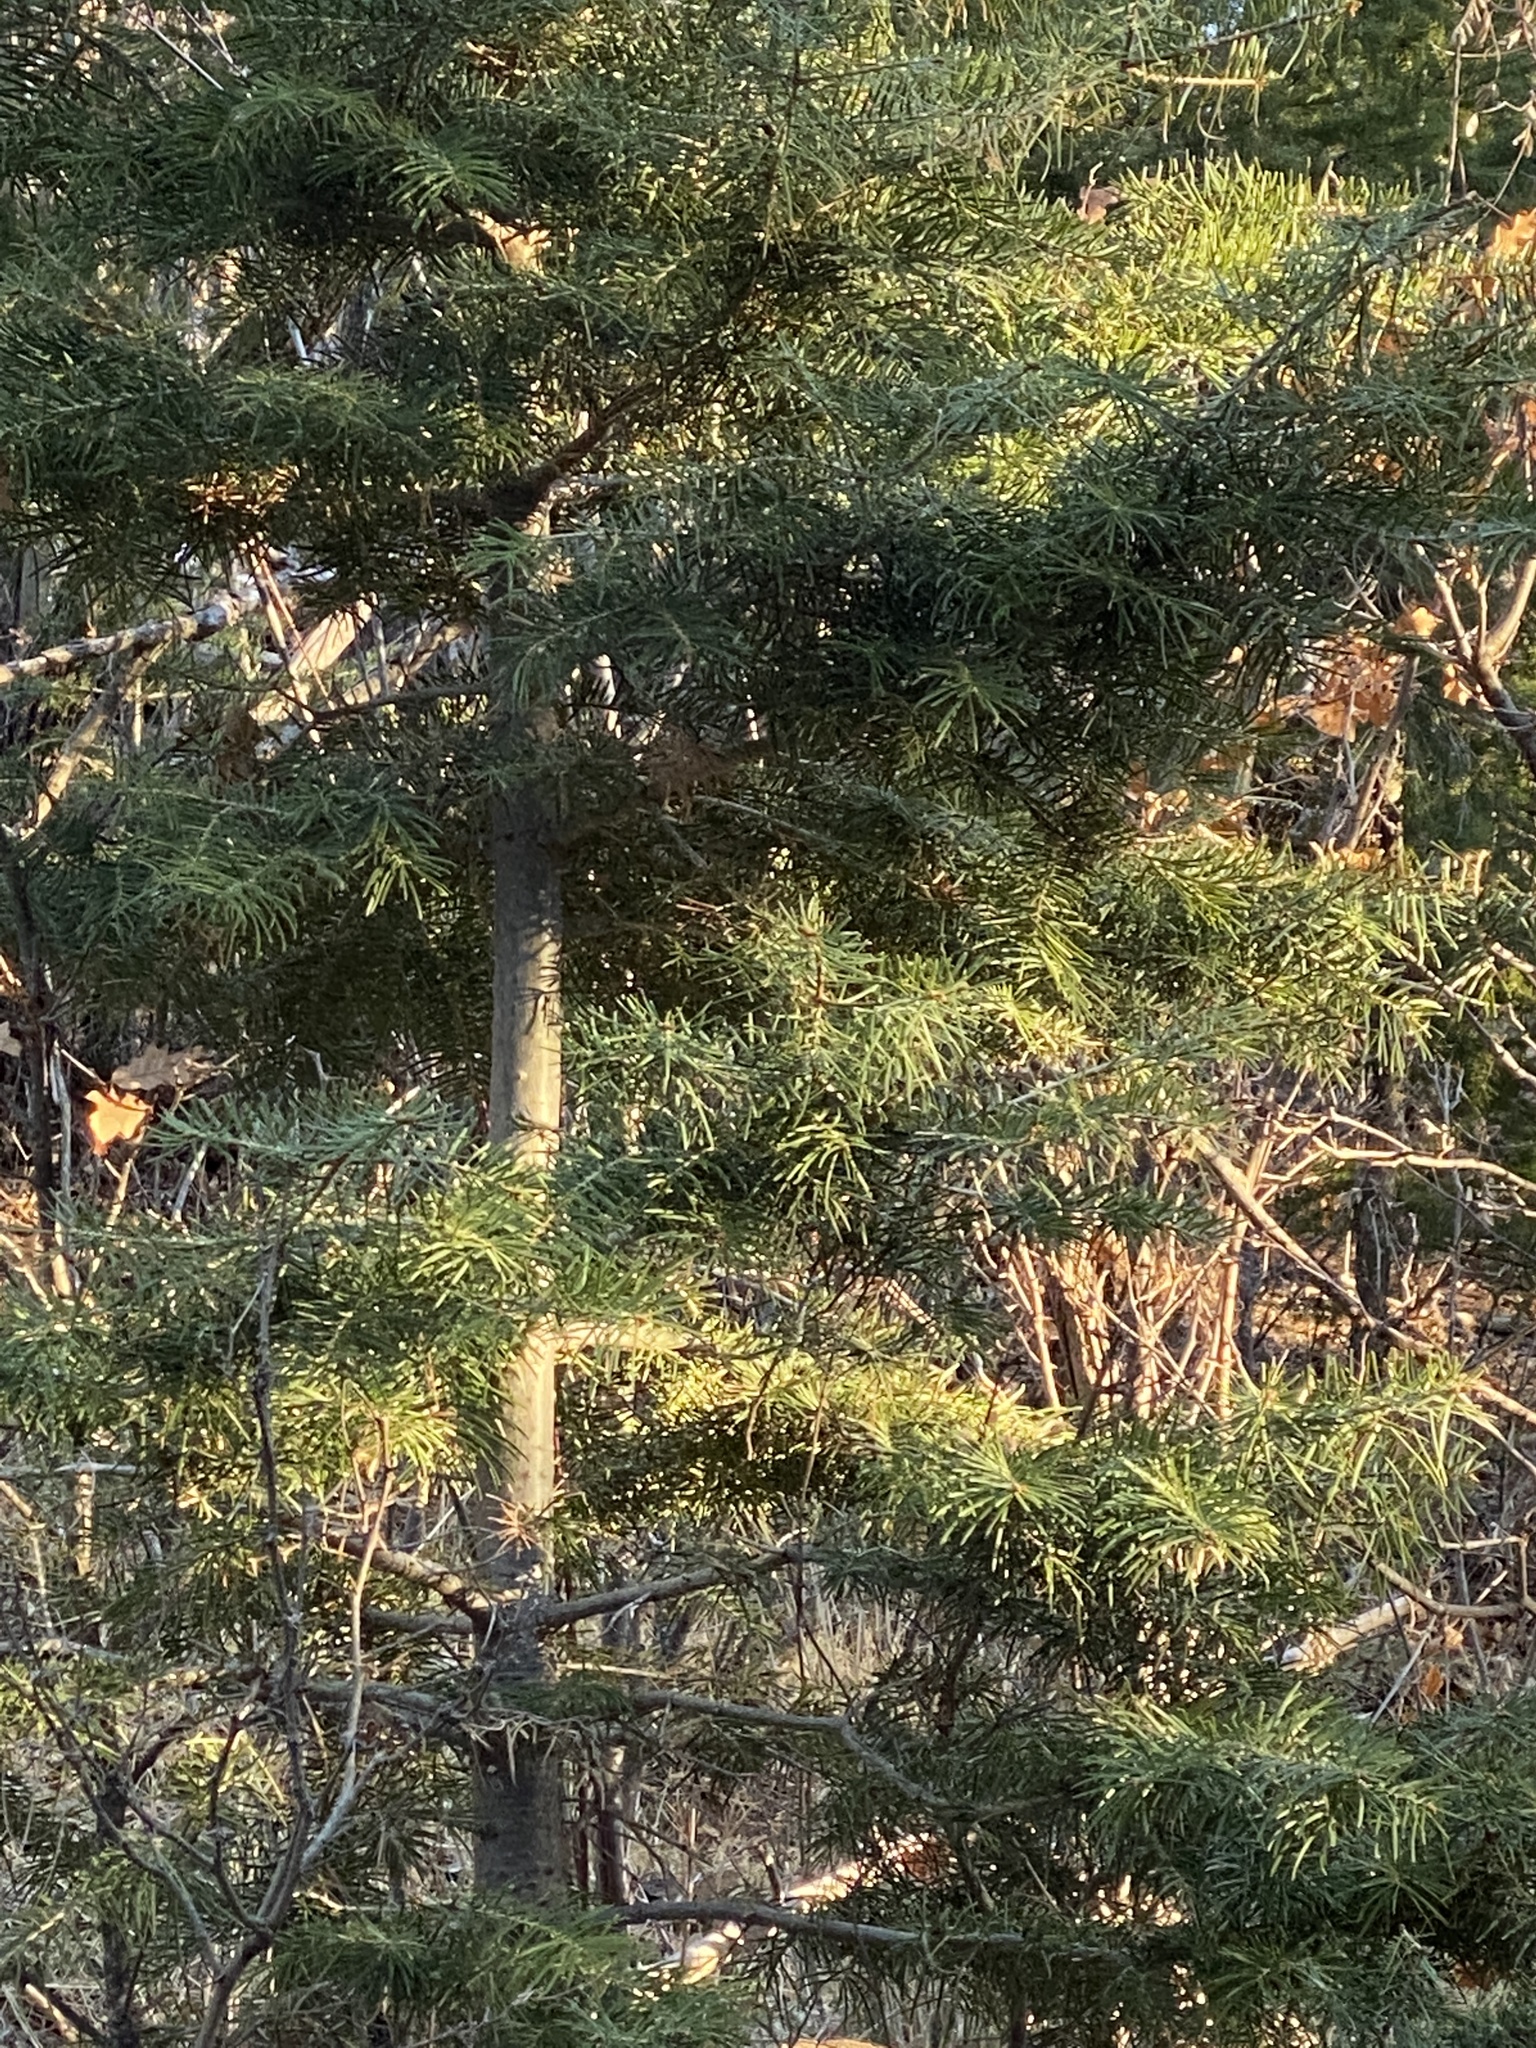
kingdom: Plantae
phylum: Tracheophyta
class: Pinopsida
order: Pinales
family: Pinaceae
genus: Abies
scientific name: Abies concolor
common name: Colorado fir
